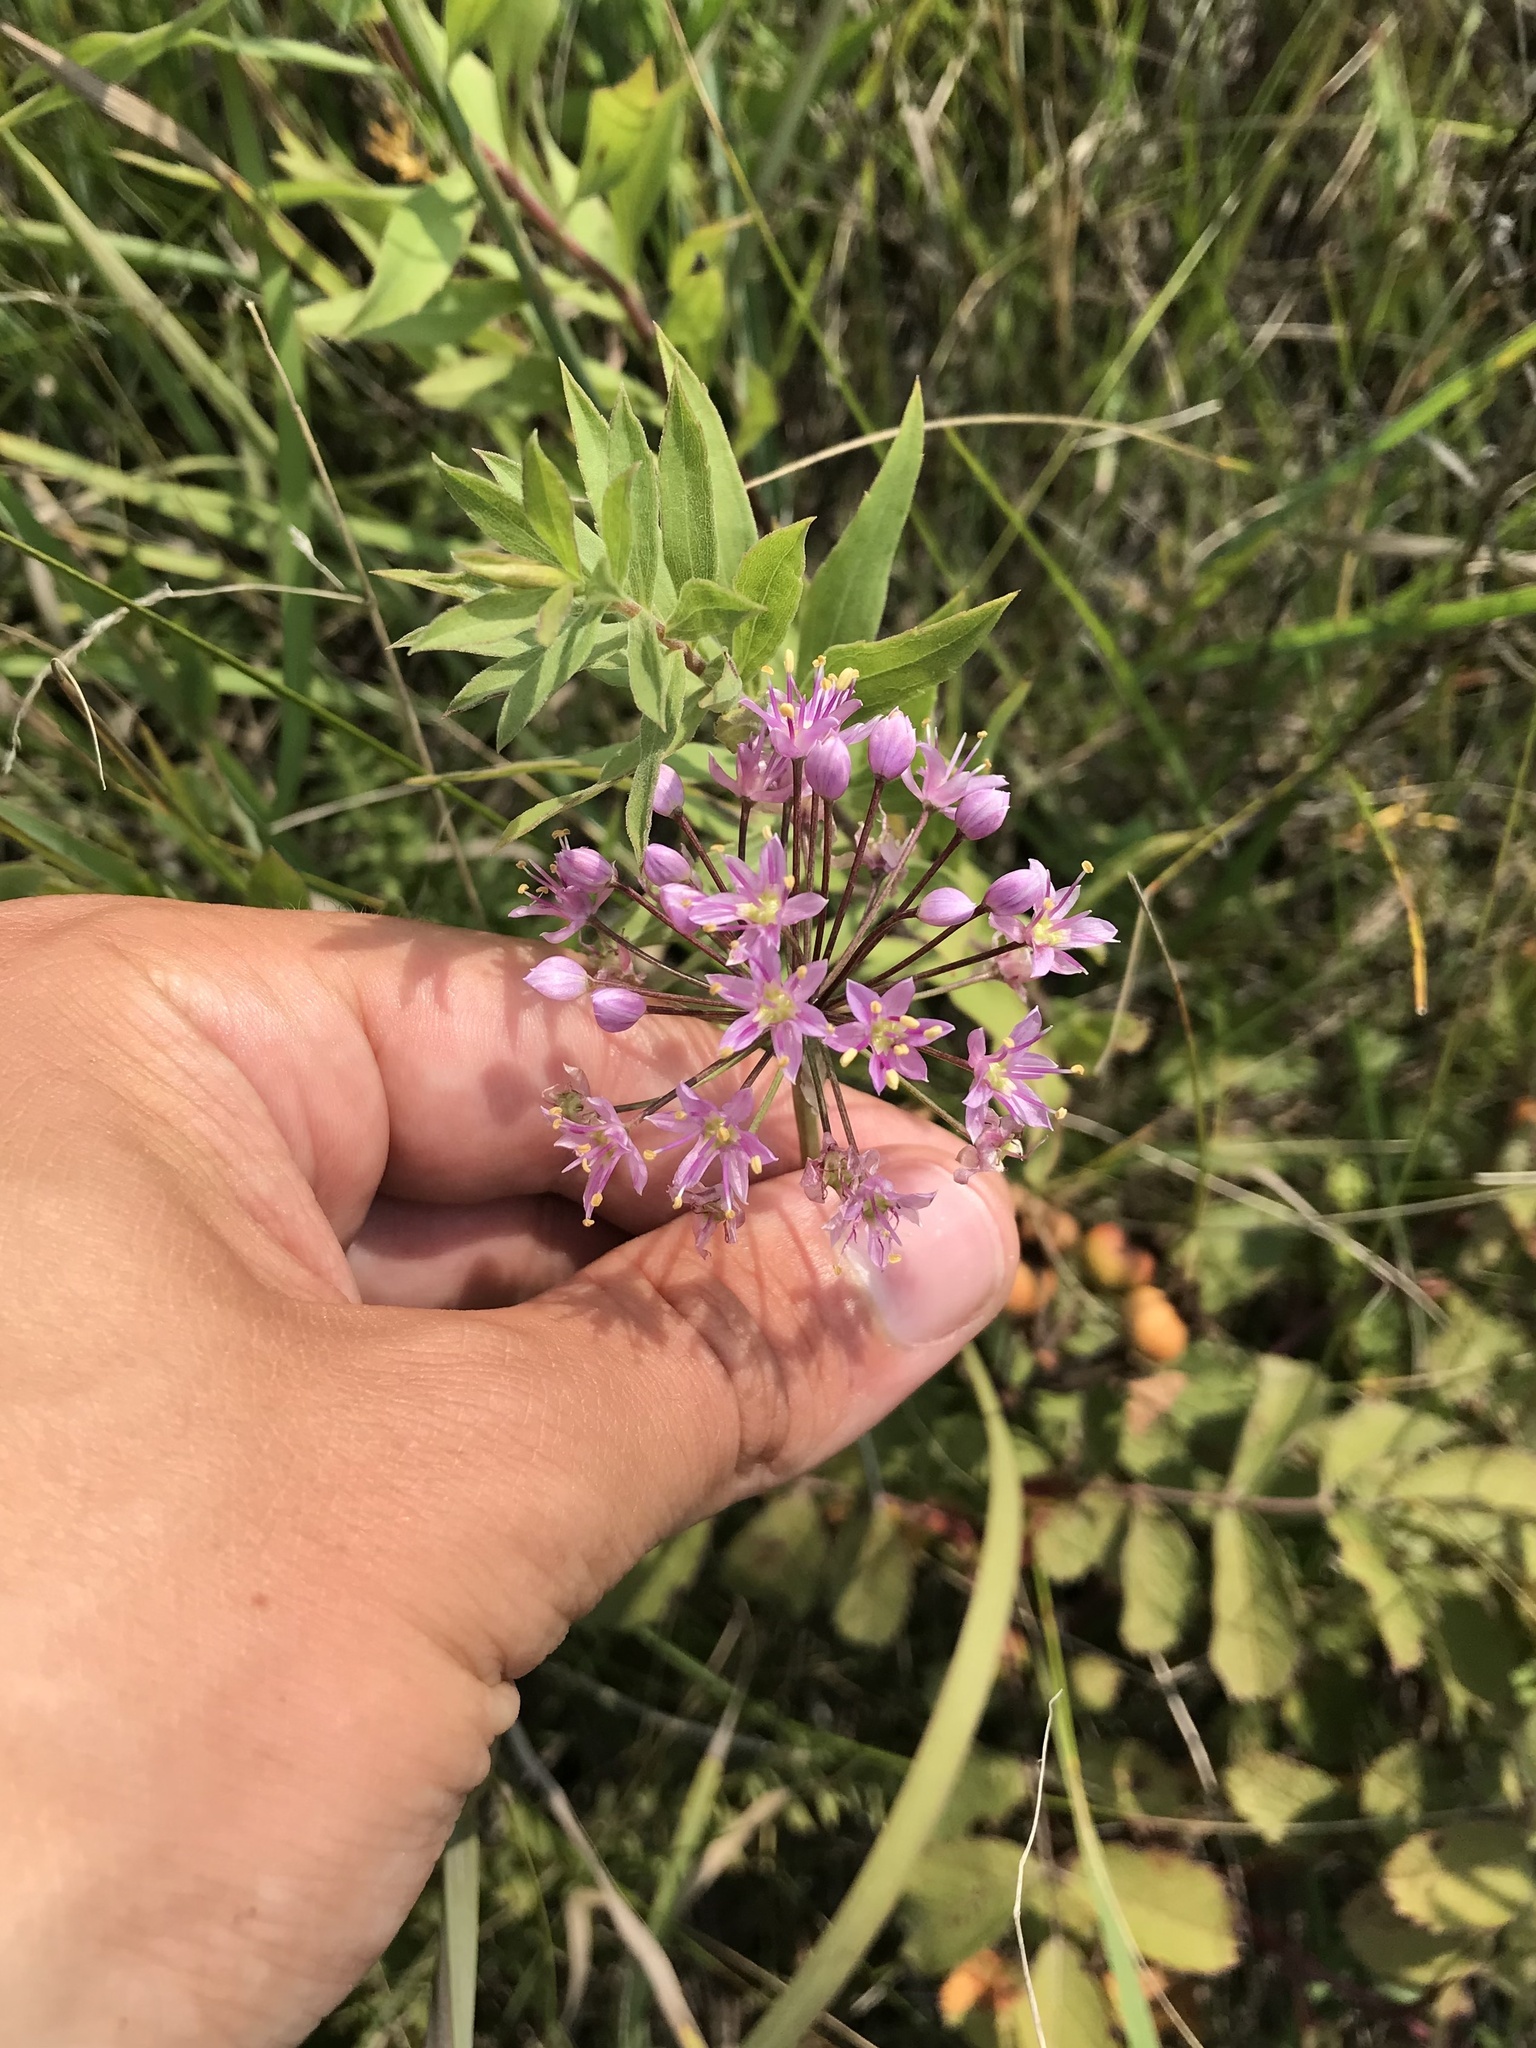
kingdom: Plantae
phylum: Tracheophyta
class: Liliopsida
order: Asparagales
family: Amaryllidaceae
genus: Allium
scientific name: Allium stellatum
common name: Autumn onion
